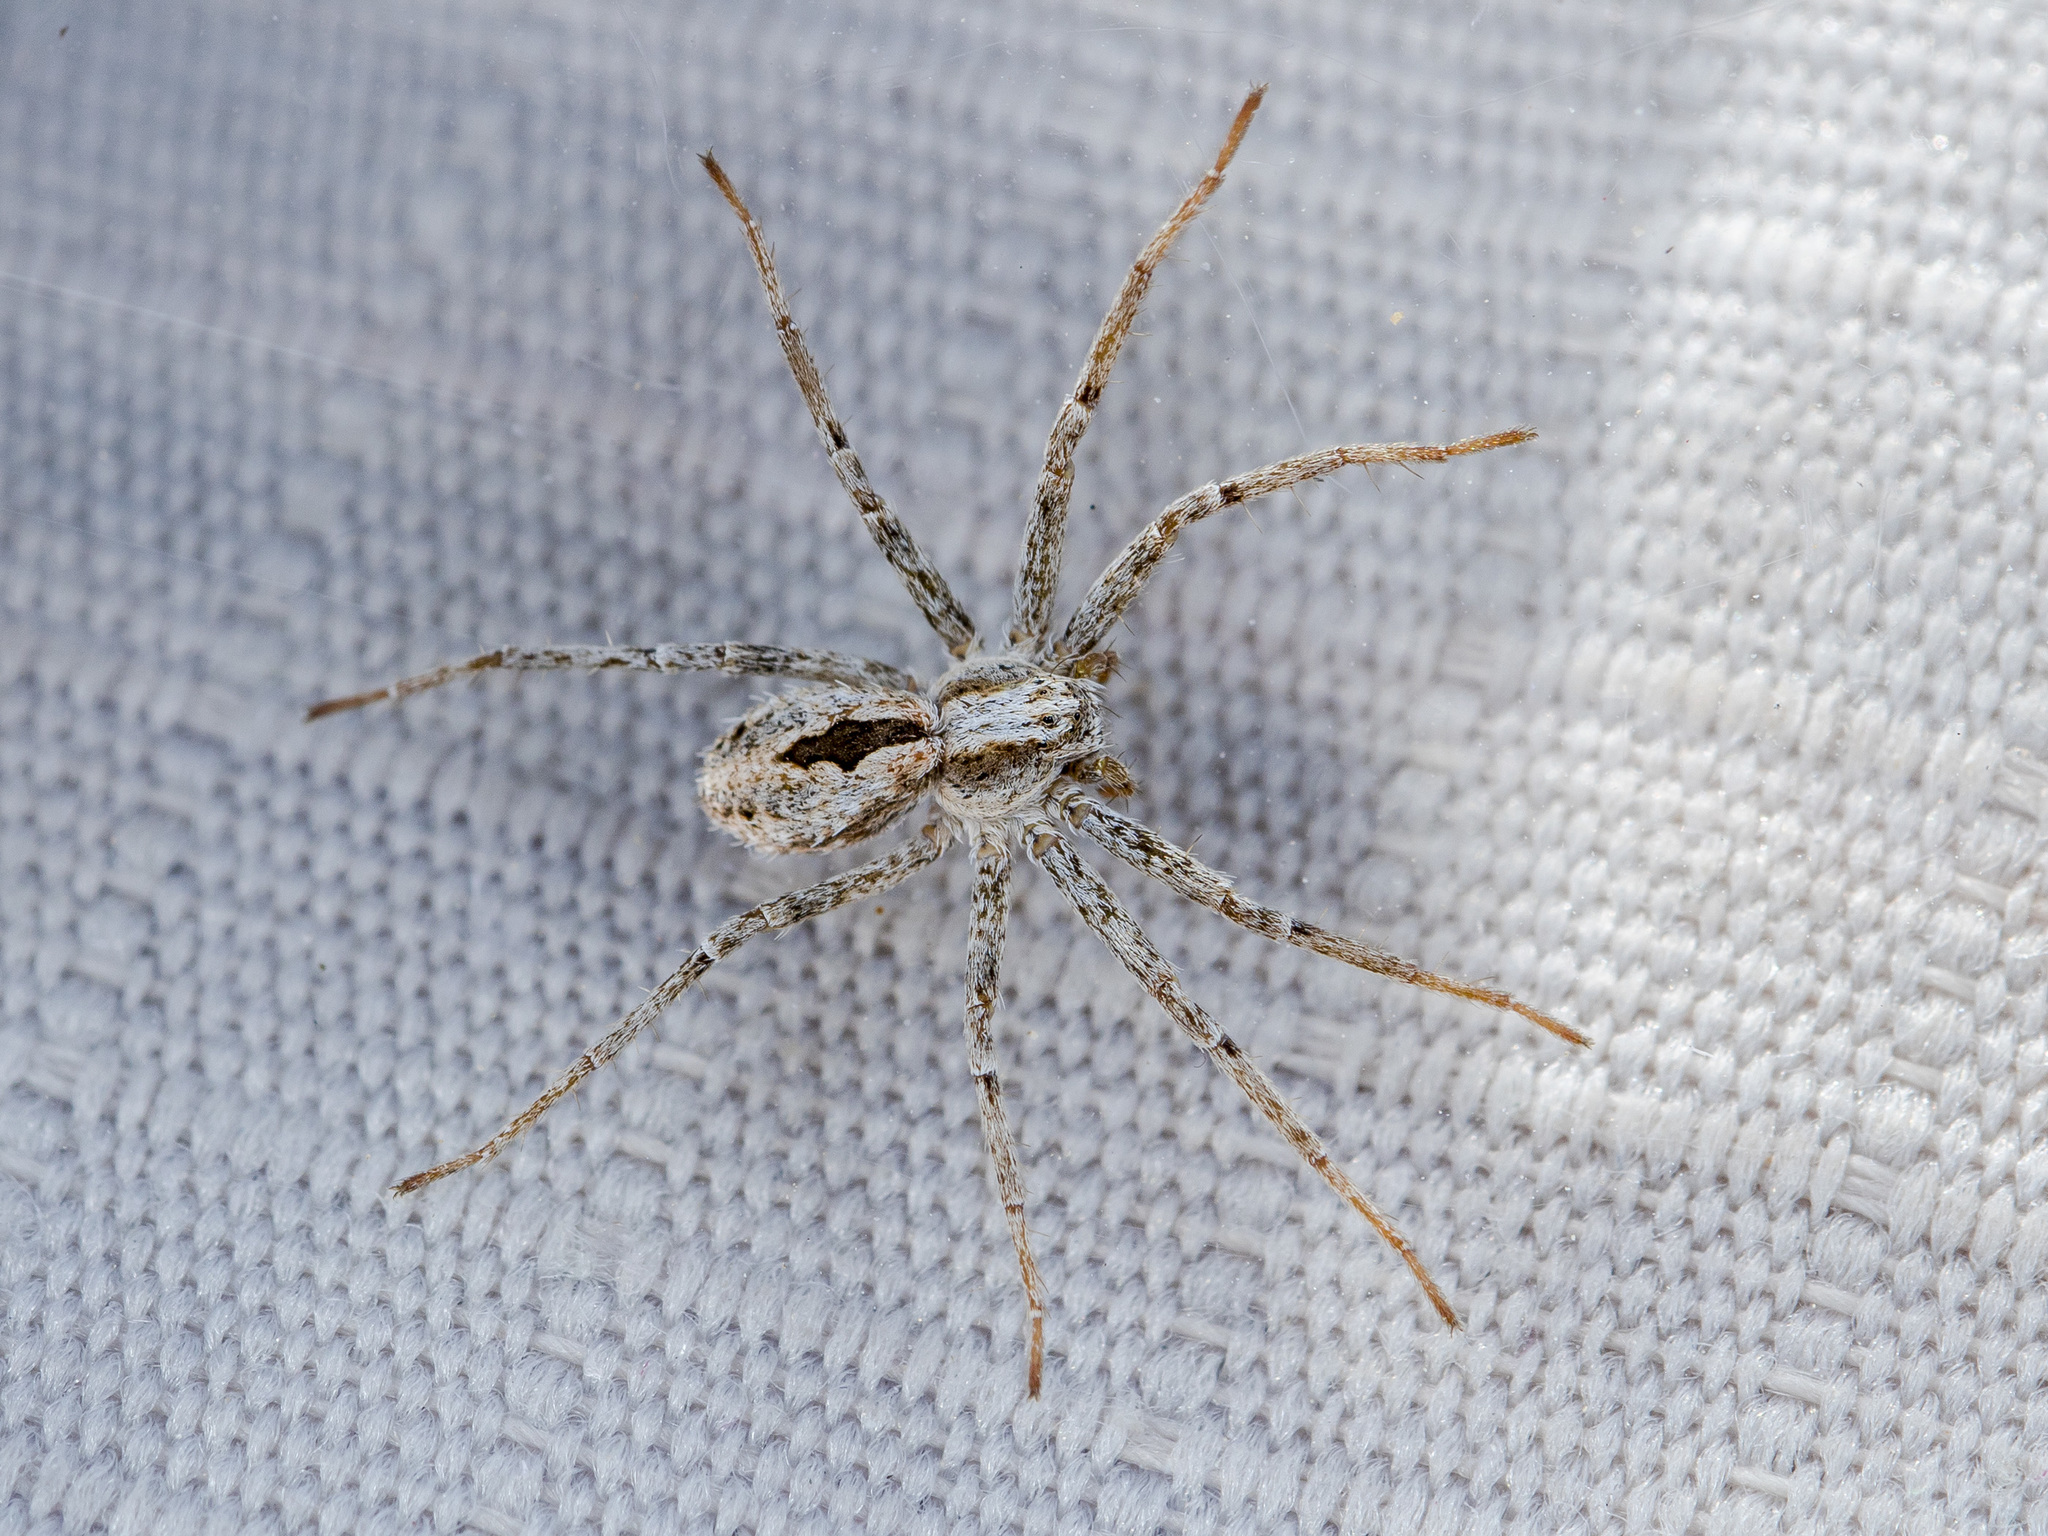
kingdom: Animalia
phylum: Arthropoda
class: Arachnida
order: Araneae
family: Philodromidae
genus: Thanatus
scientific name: Thanatus kitabensis
